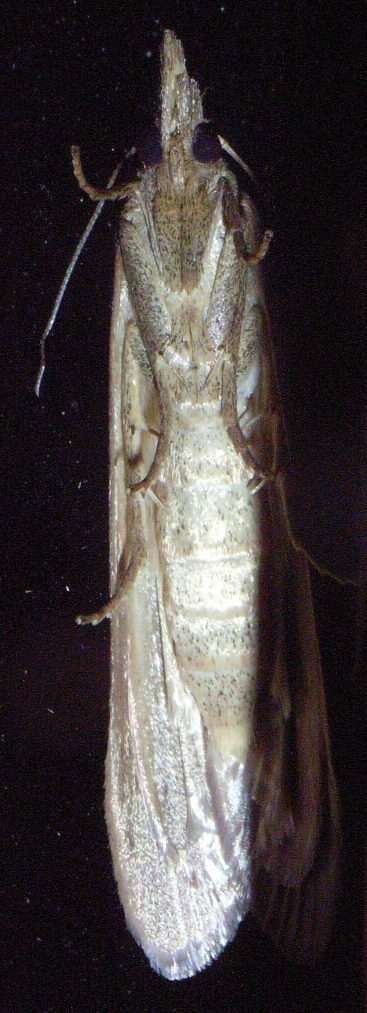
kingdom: Animalia
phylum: Arthropoda
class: Insecta
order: Lepidoptera
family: Pyralidae
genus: Meyriccia
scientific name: Meyriccia latro
